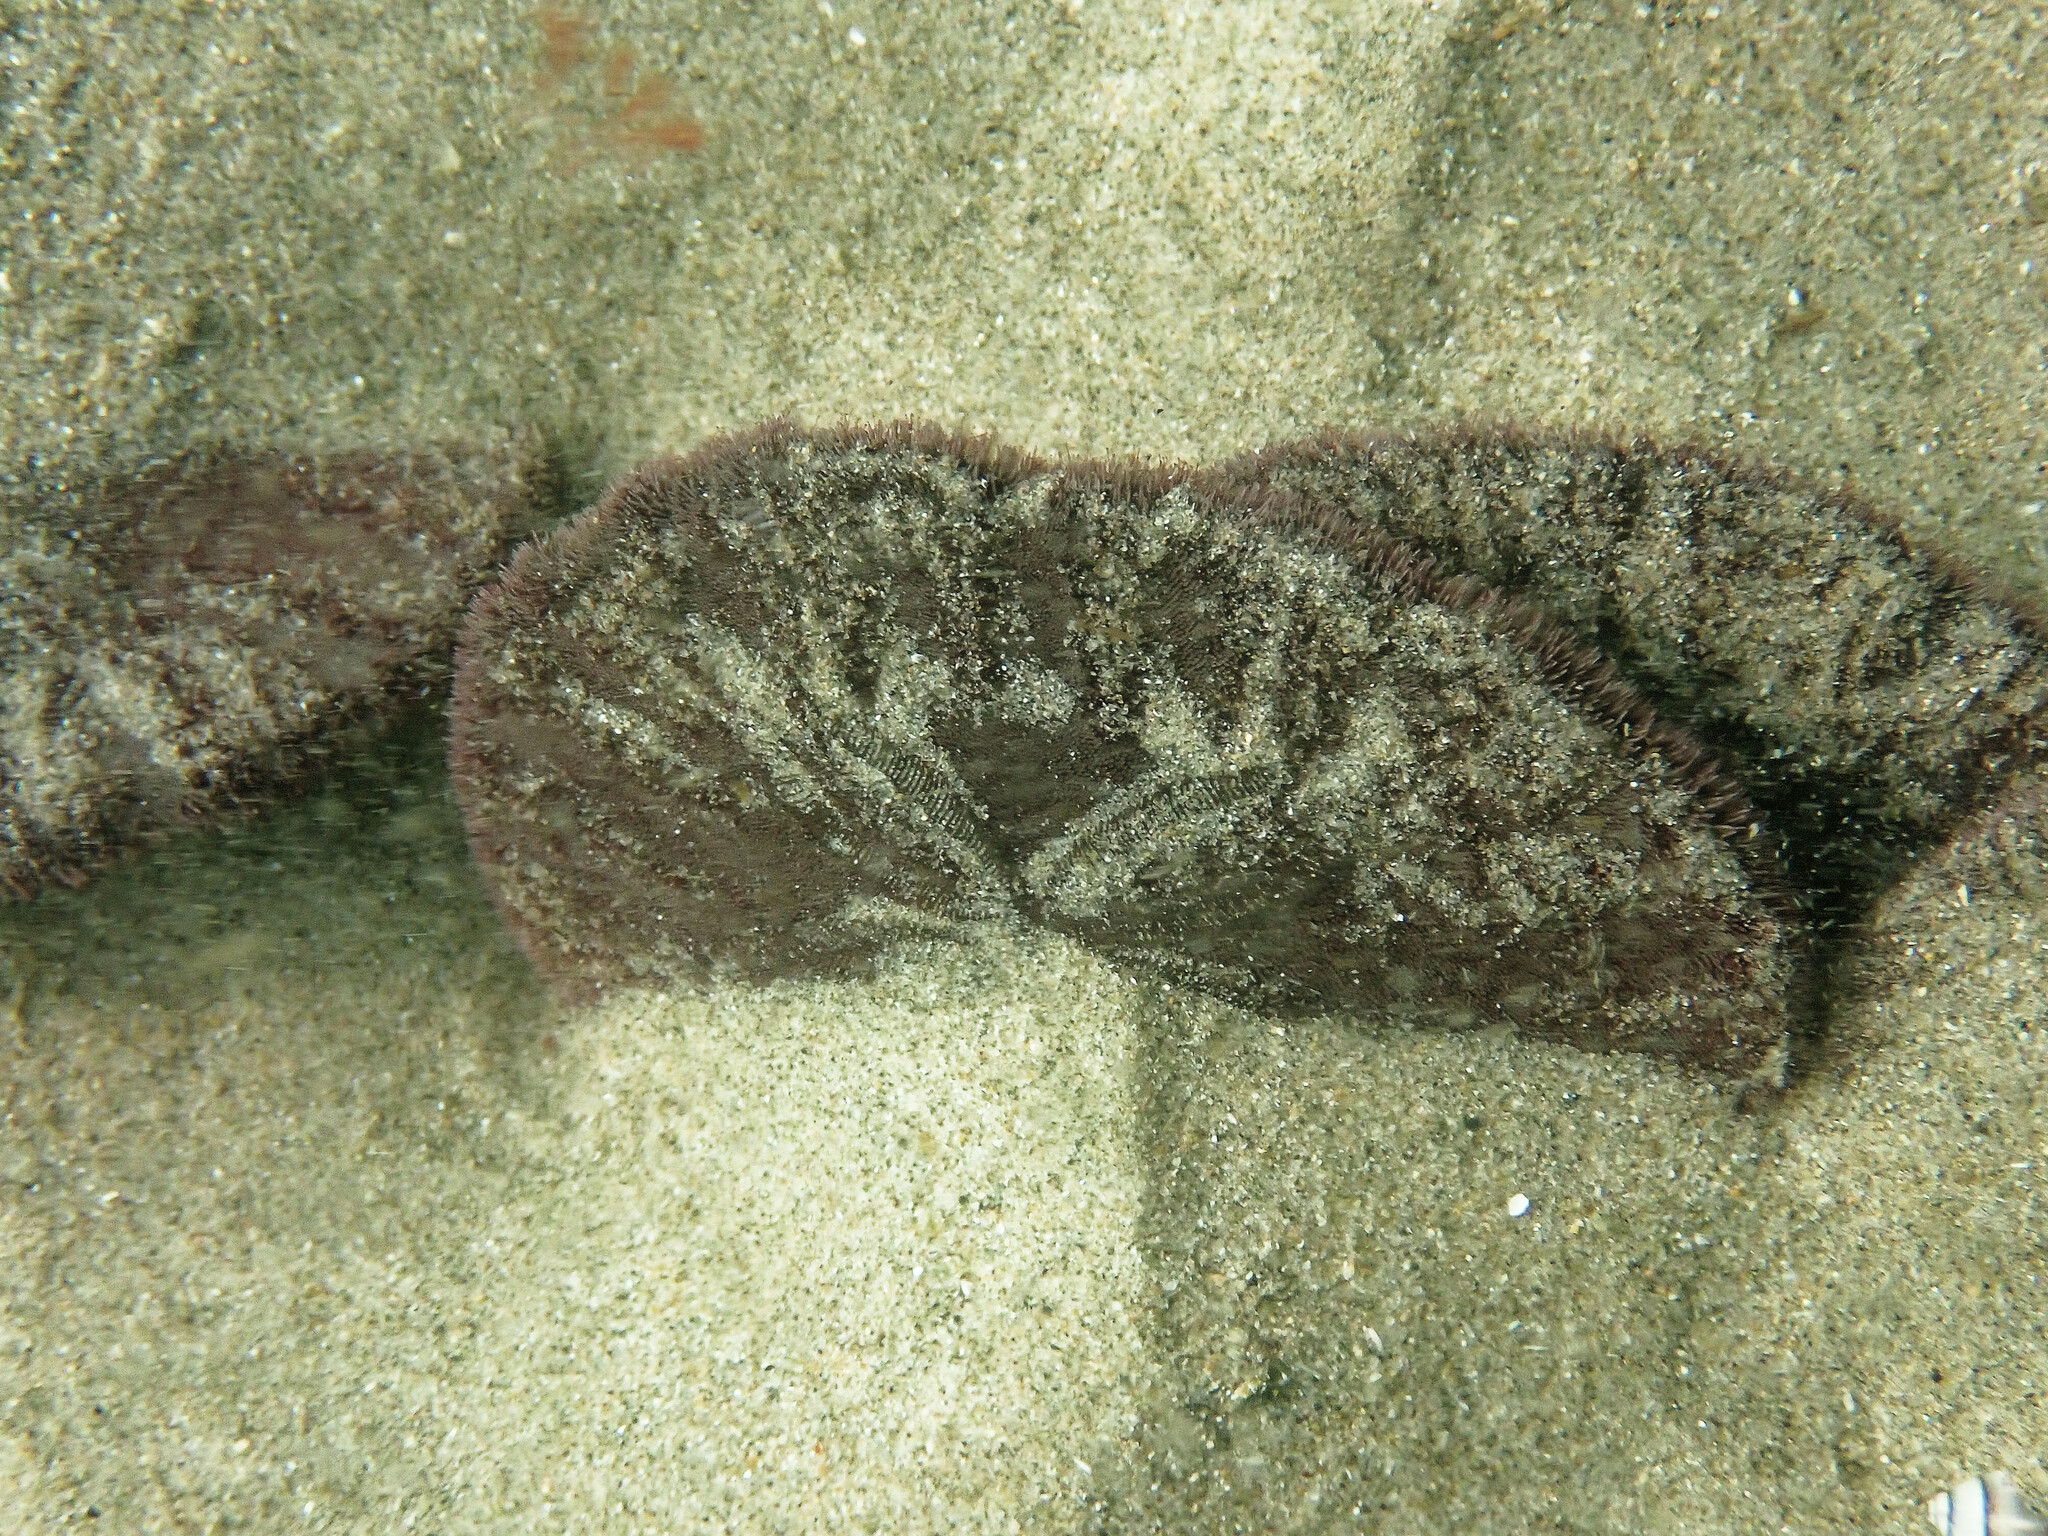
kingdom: Animalia
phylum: Echinodermata
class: Echinoidea
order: Echinolampadacea
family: Dendrasteridae
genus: Dendraster
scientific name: Dendraster excentricus
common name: Eccentric sand dollar sea urchin
